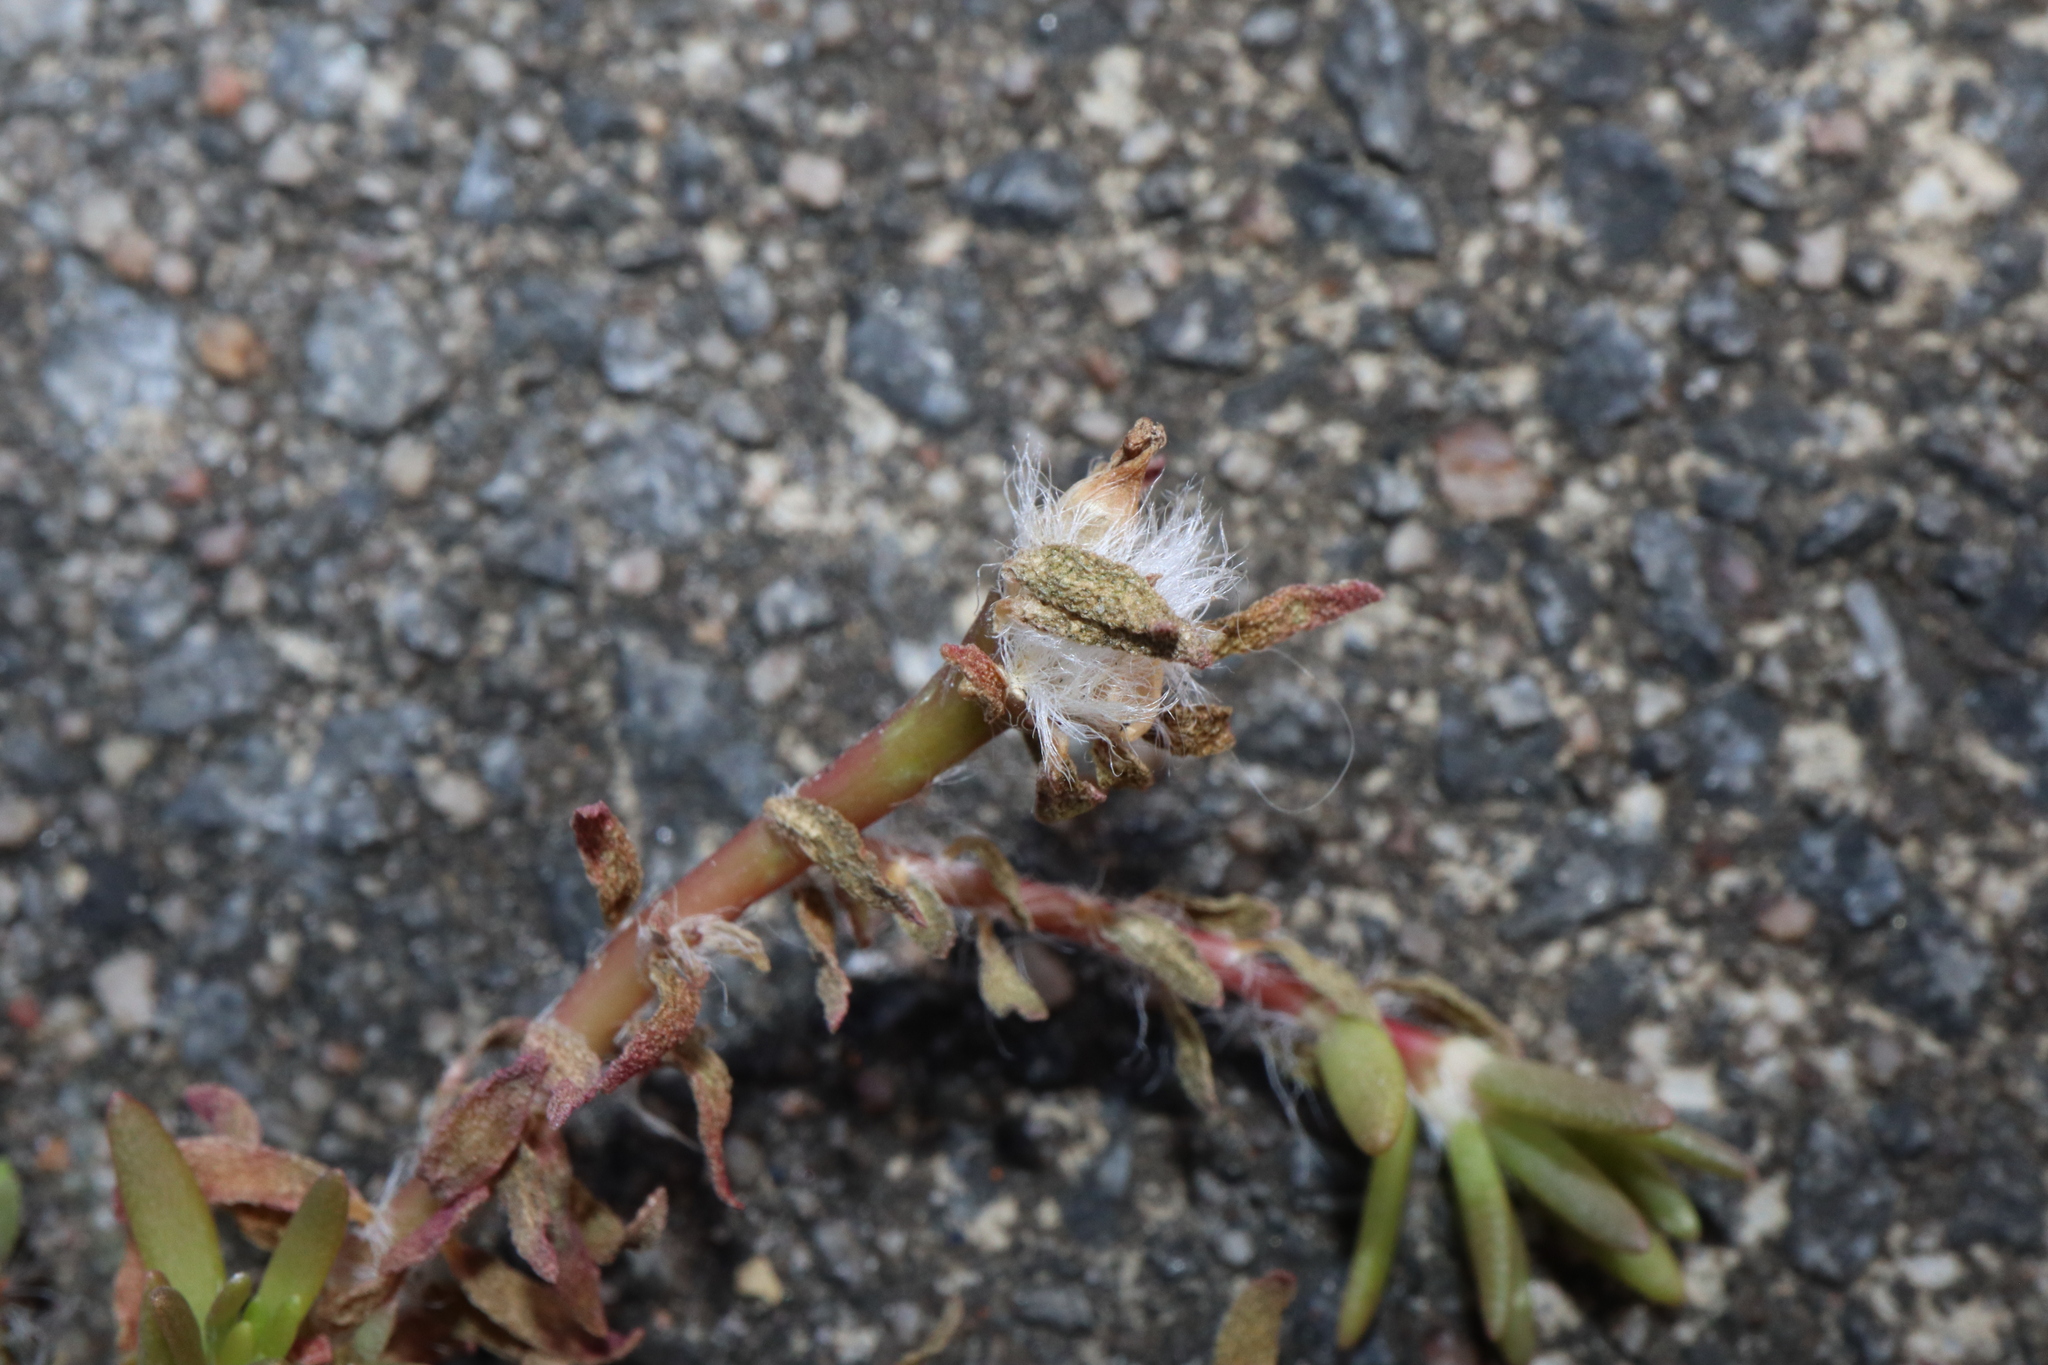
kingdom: Plantae
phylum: Tracheophyta
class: Magnoliopsida
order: Caryophyllales
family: Portulacaceae
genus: Portulaca
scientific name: Portulaca pilosa
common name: Kiss me quick
